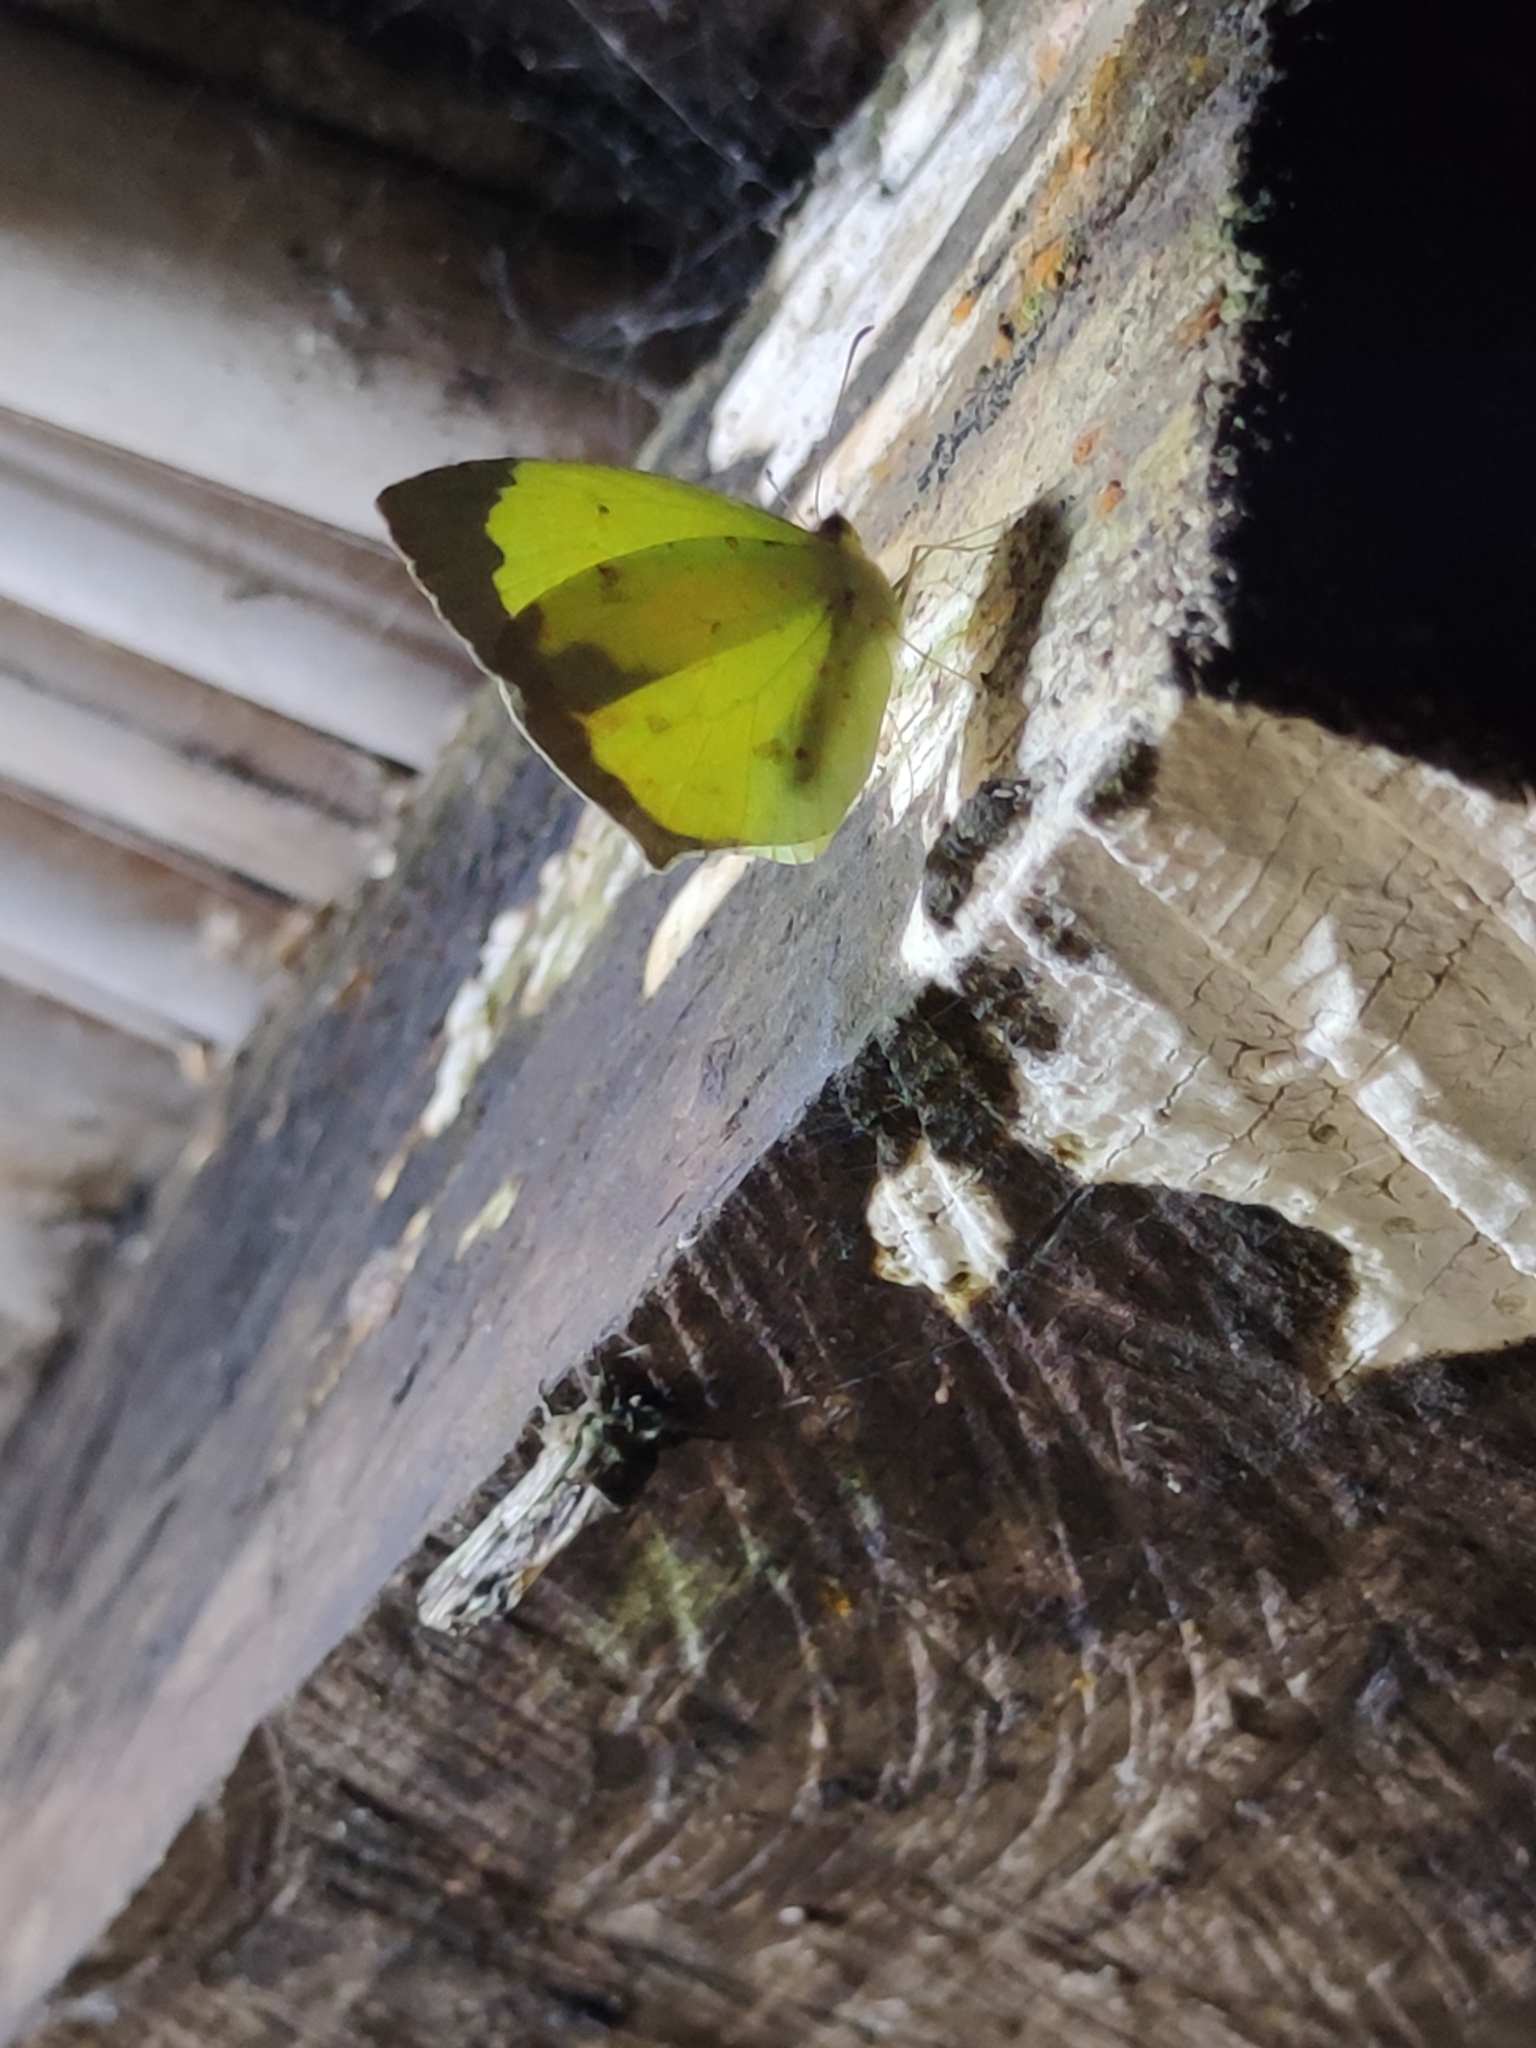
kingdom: Animalia
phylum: Arthropoda
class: Insecta
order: Lepidoptera
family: Pieridae
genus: Abaeis
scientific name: Abaeis salome
